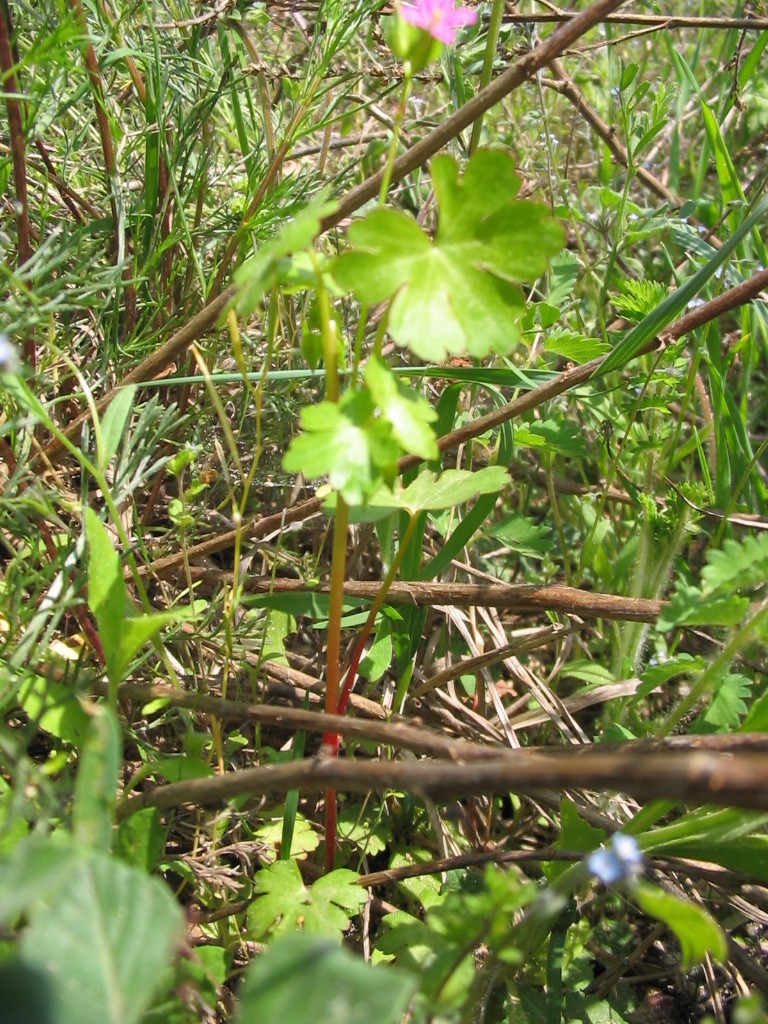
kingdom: Plantae
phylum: Tracheophyta
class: Magnoliopsida
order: Geraniales
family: Geraniaceae
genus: Geranium
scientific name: Geranium lucidum
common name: Shining crane's-bill
